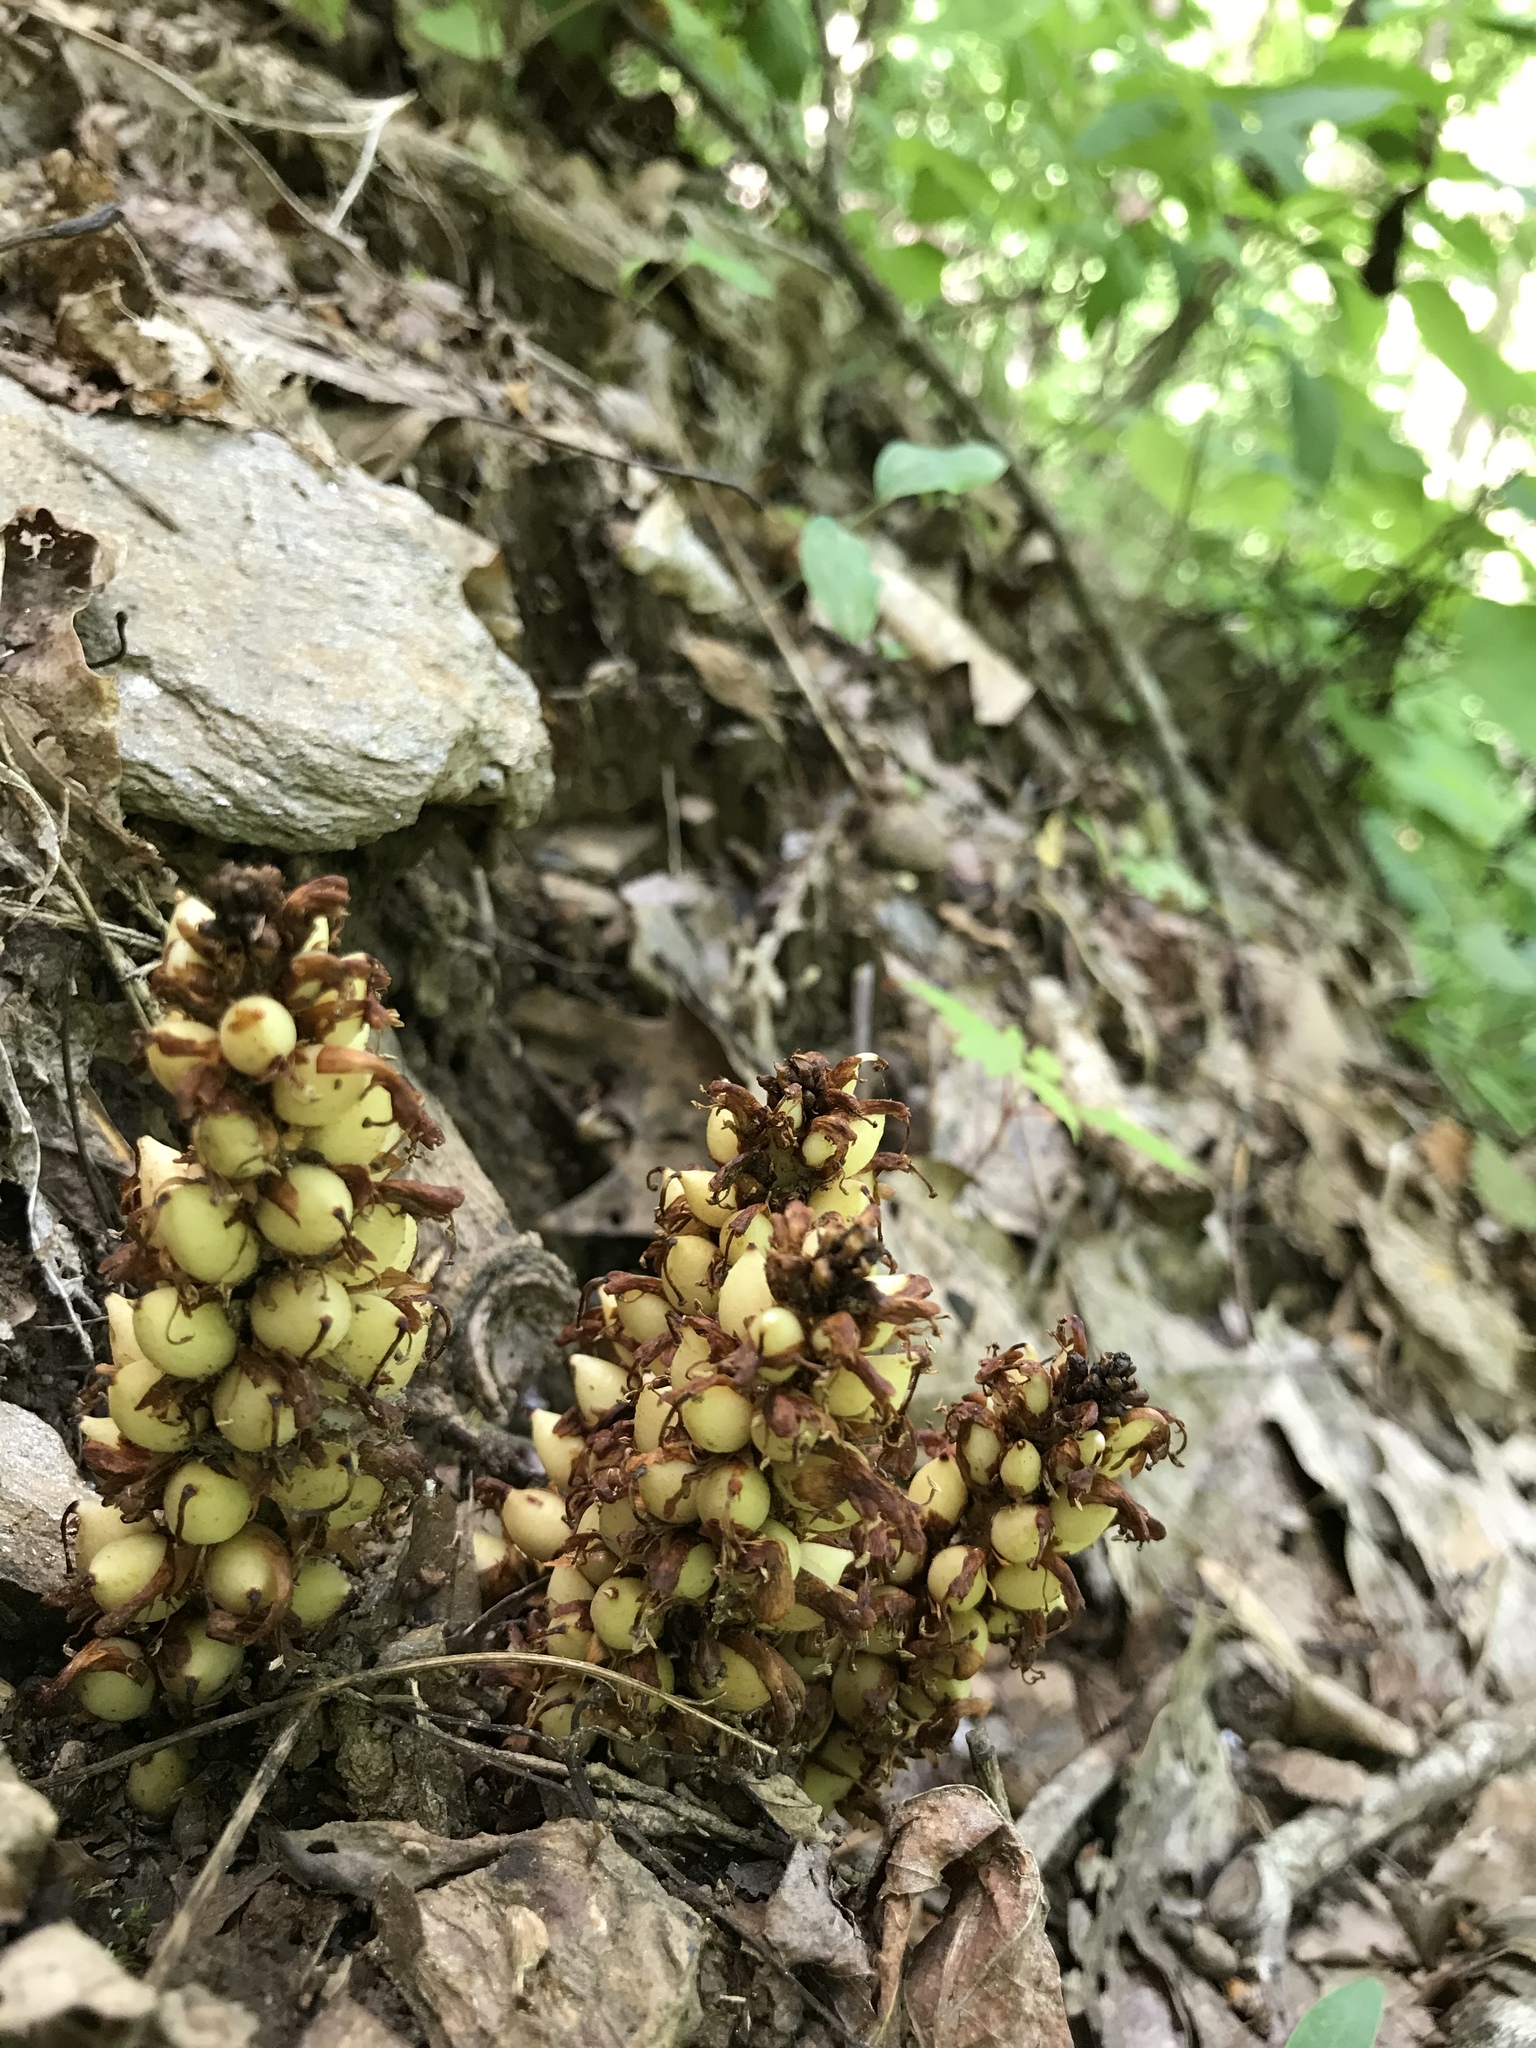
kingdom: Plantae
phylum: Tracheophyta
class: Magnoliopsida
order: Lamiales
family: Orobanchaceae
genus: Conopholis
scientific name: Conopholis americana
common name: American cancer-root
